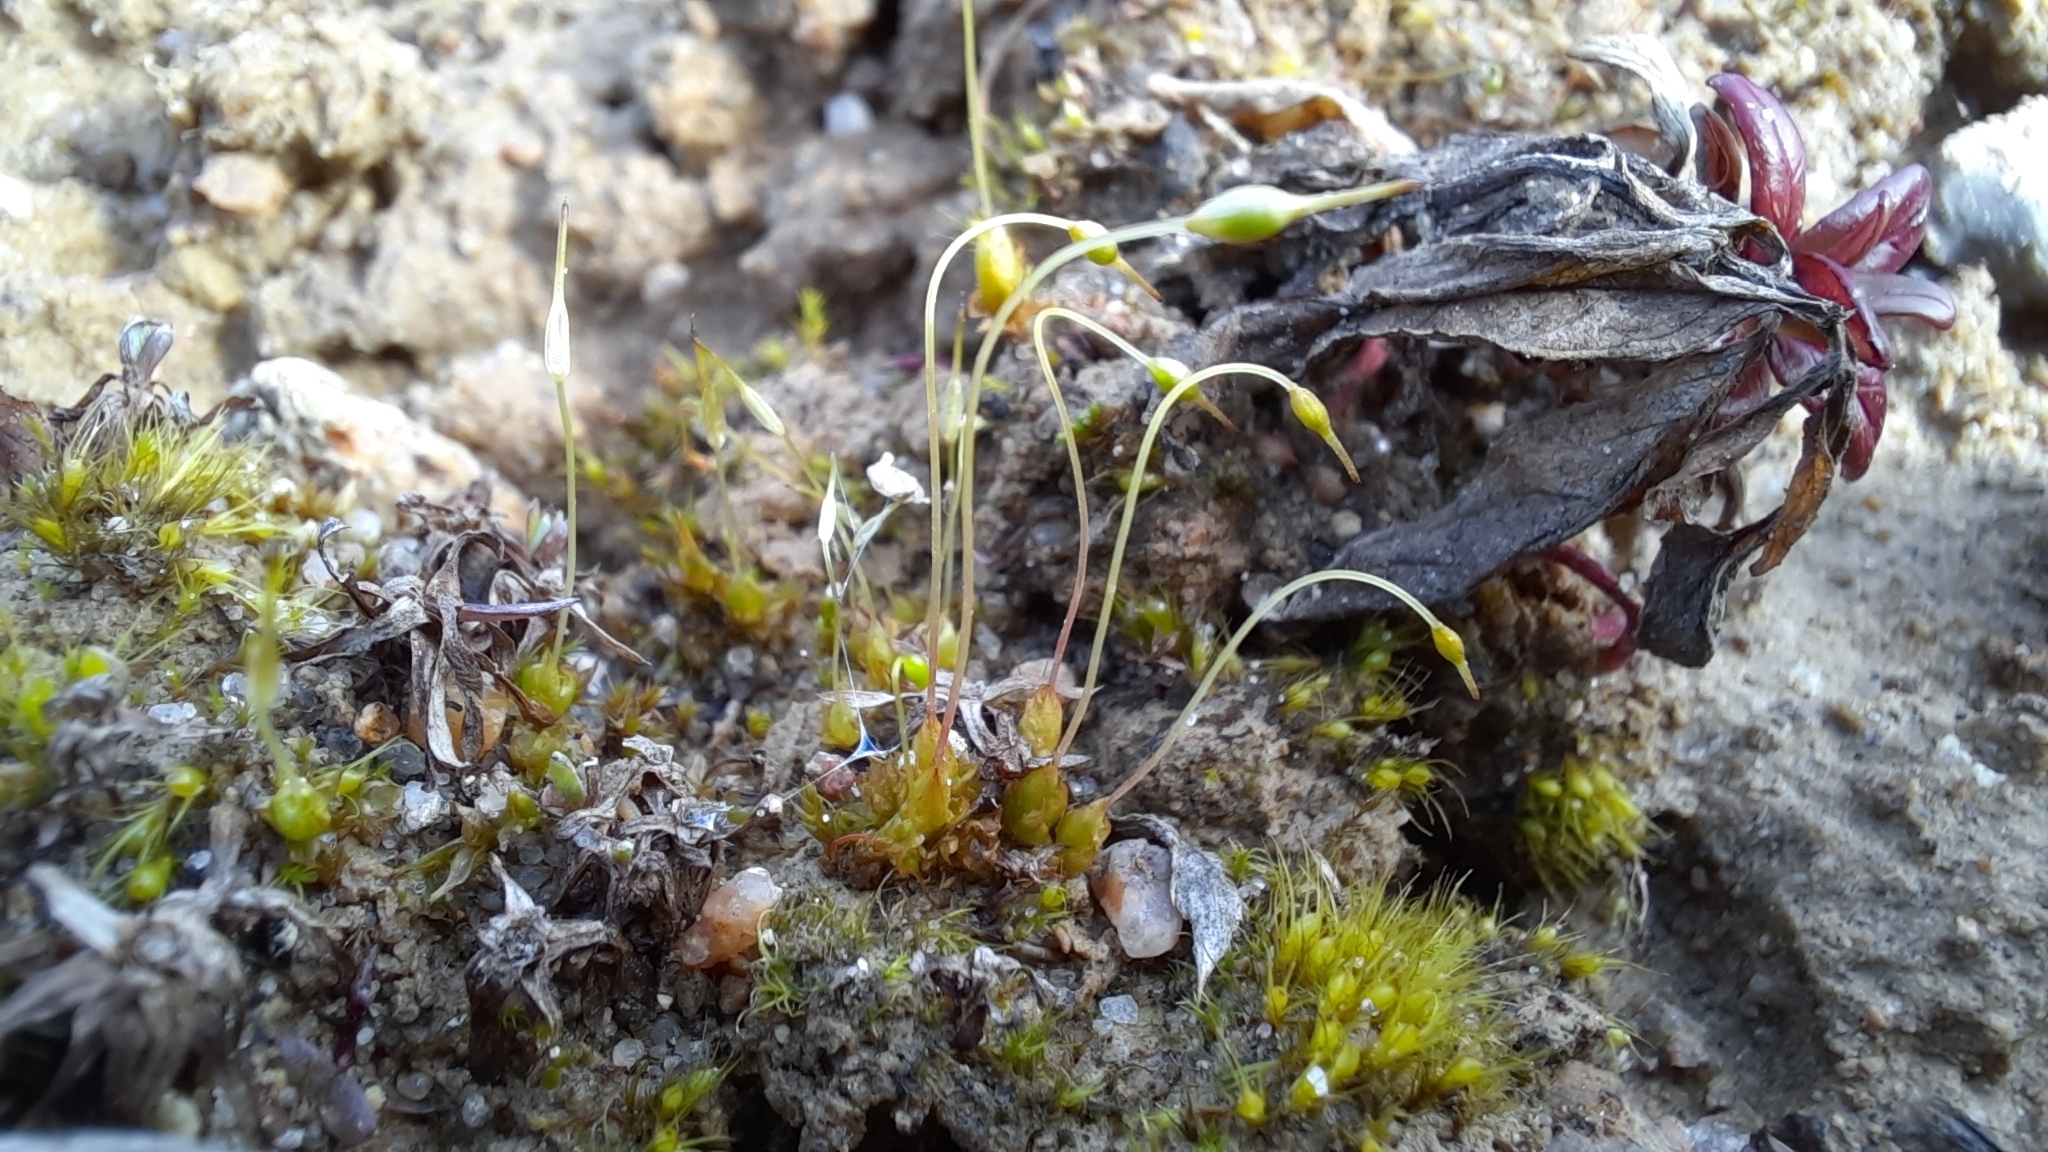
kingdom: Plantae
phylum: Bryophyta
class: Bryopsida
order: Funariales
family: Funariaceae
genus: Funaria
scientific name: Funaria hygrometrica
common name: Common cord moss
